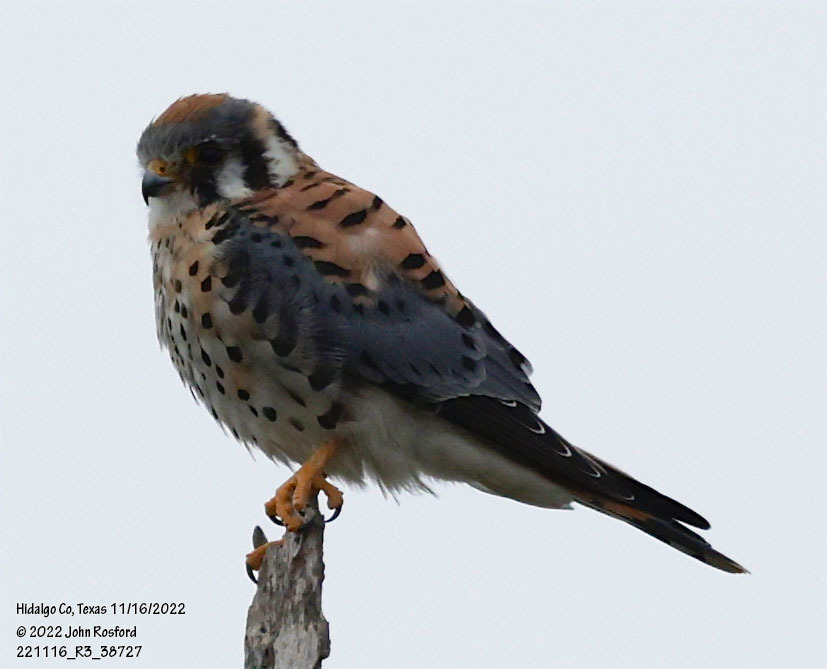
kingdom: Animalia
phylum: Chordata
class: Aves
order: Falconiformes
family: Falconidae
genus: Falco
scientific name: Falco sparverius
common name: American kestrel
